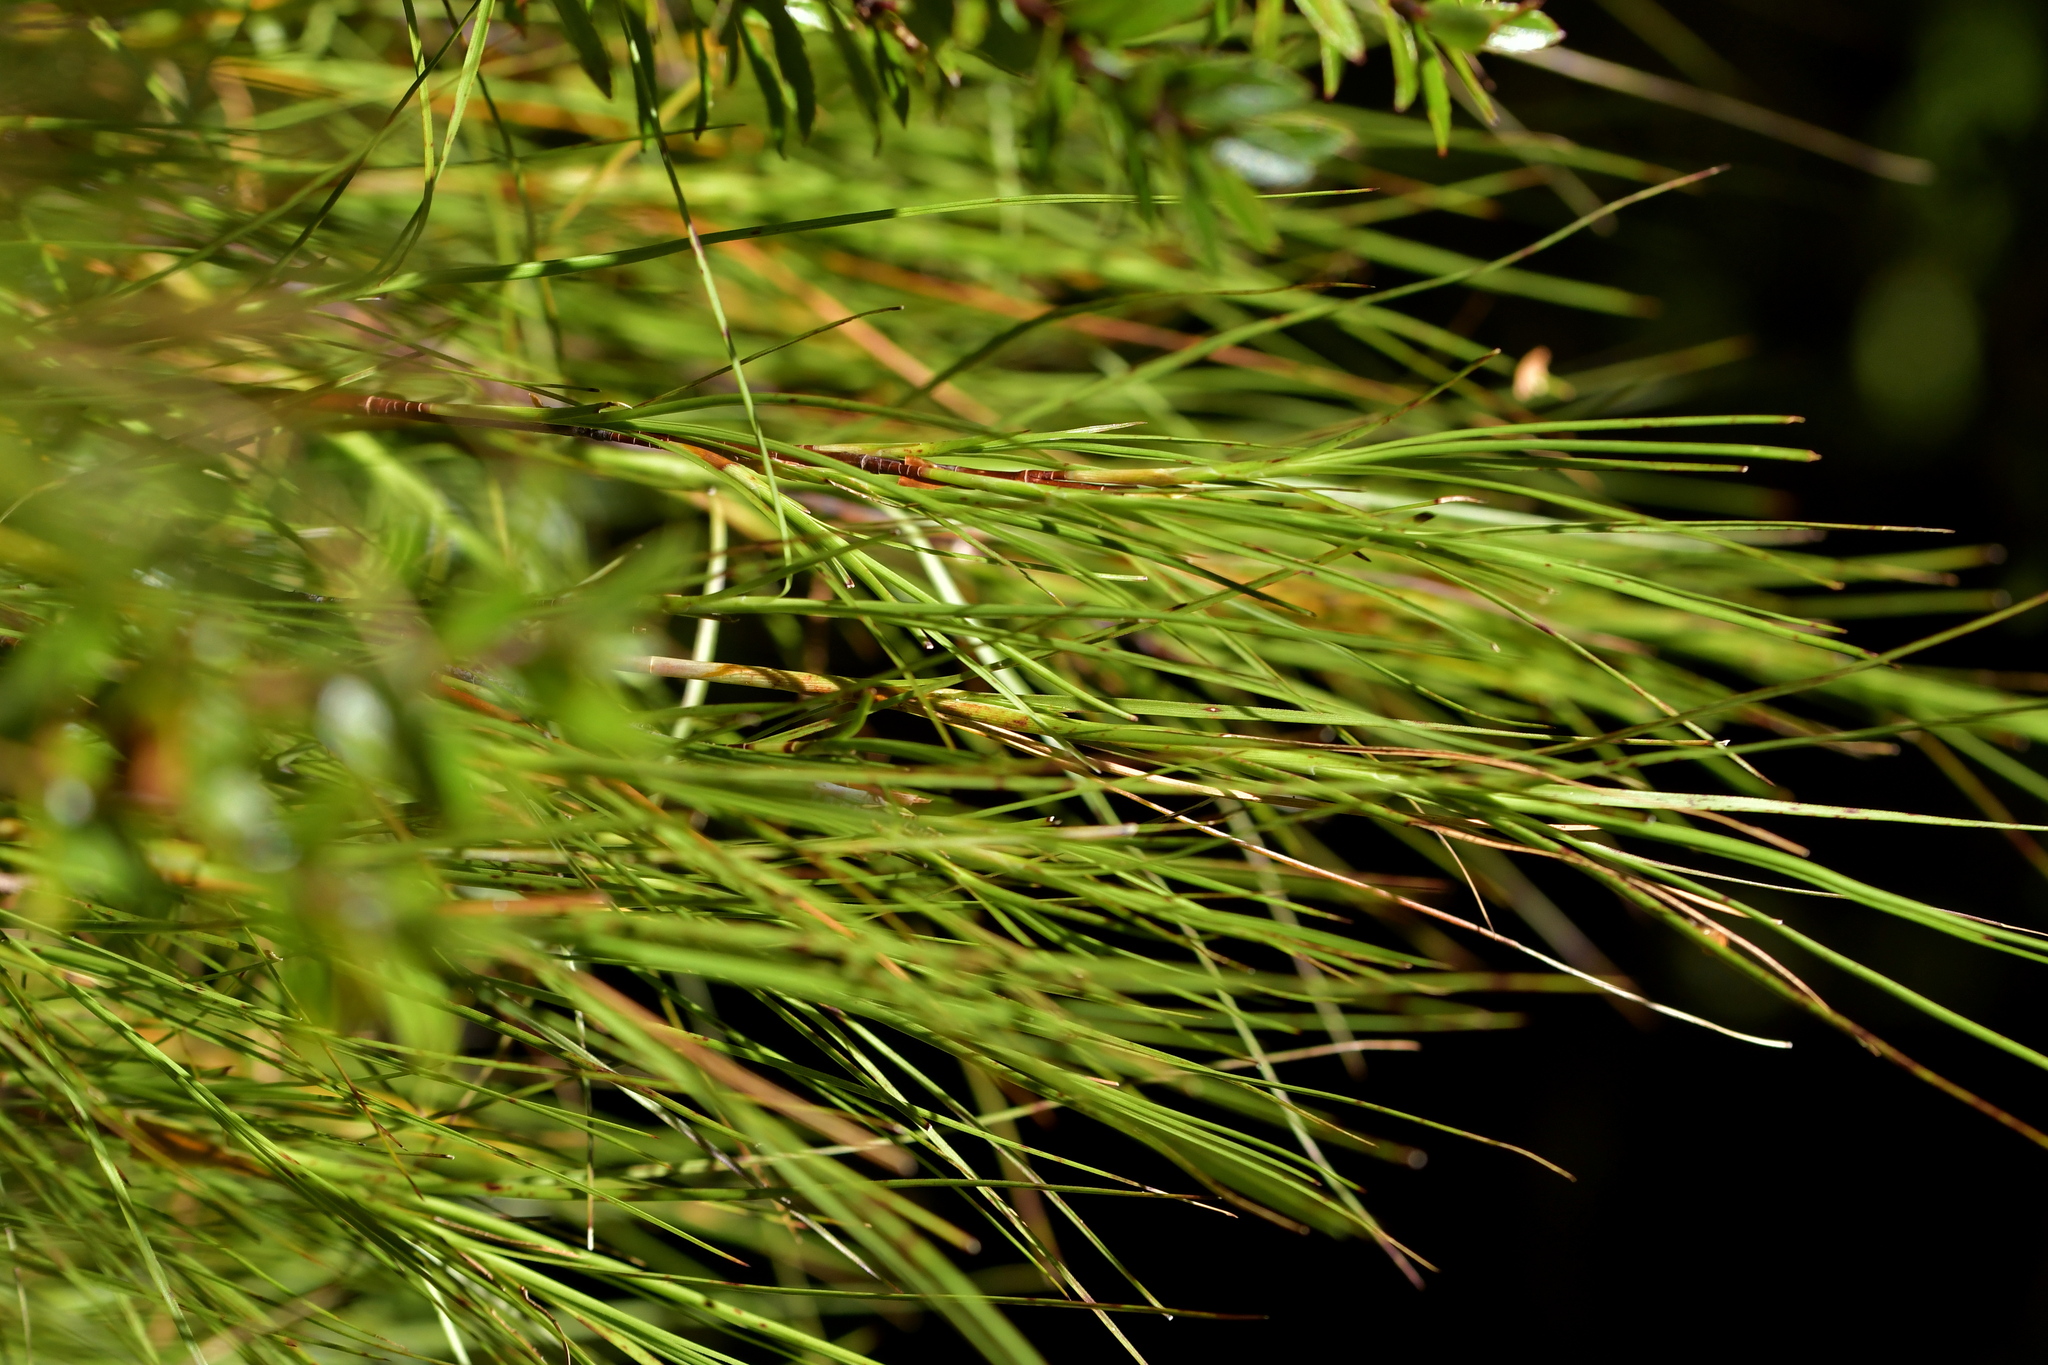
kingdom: Plantae
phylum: Tracheophyta
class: Magnoliopsida
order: Ericales
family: Ericaceae
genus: Dracophyllum
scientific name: Dracophyllum filifolium
